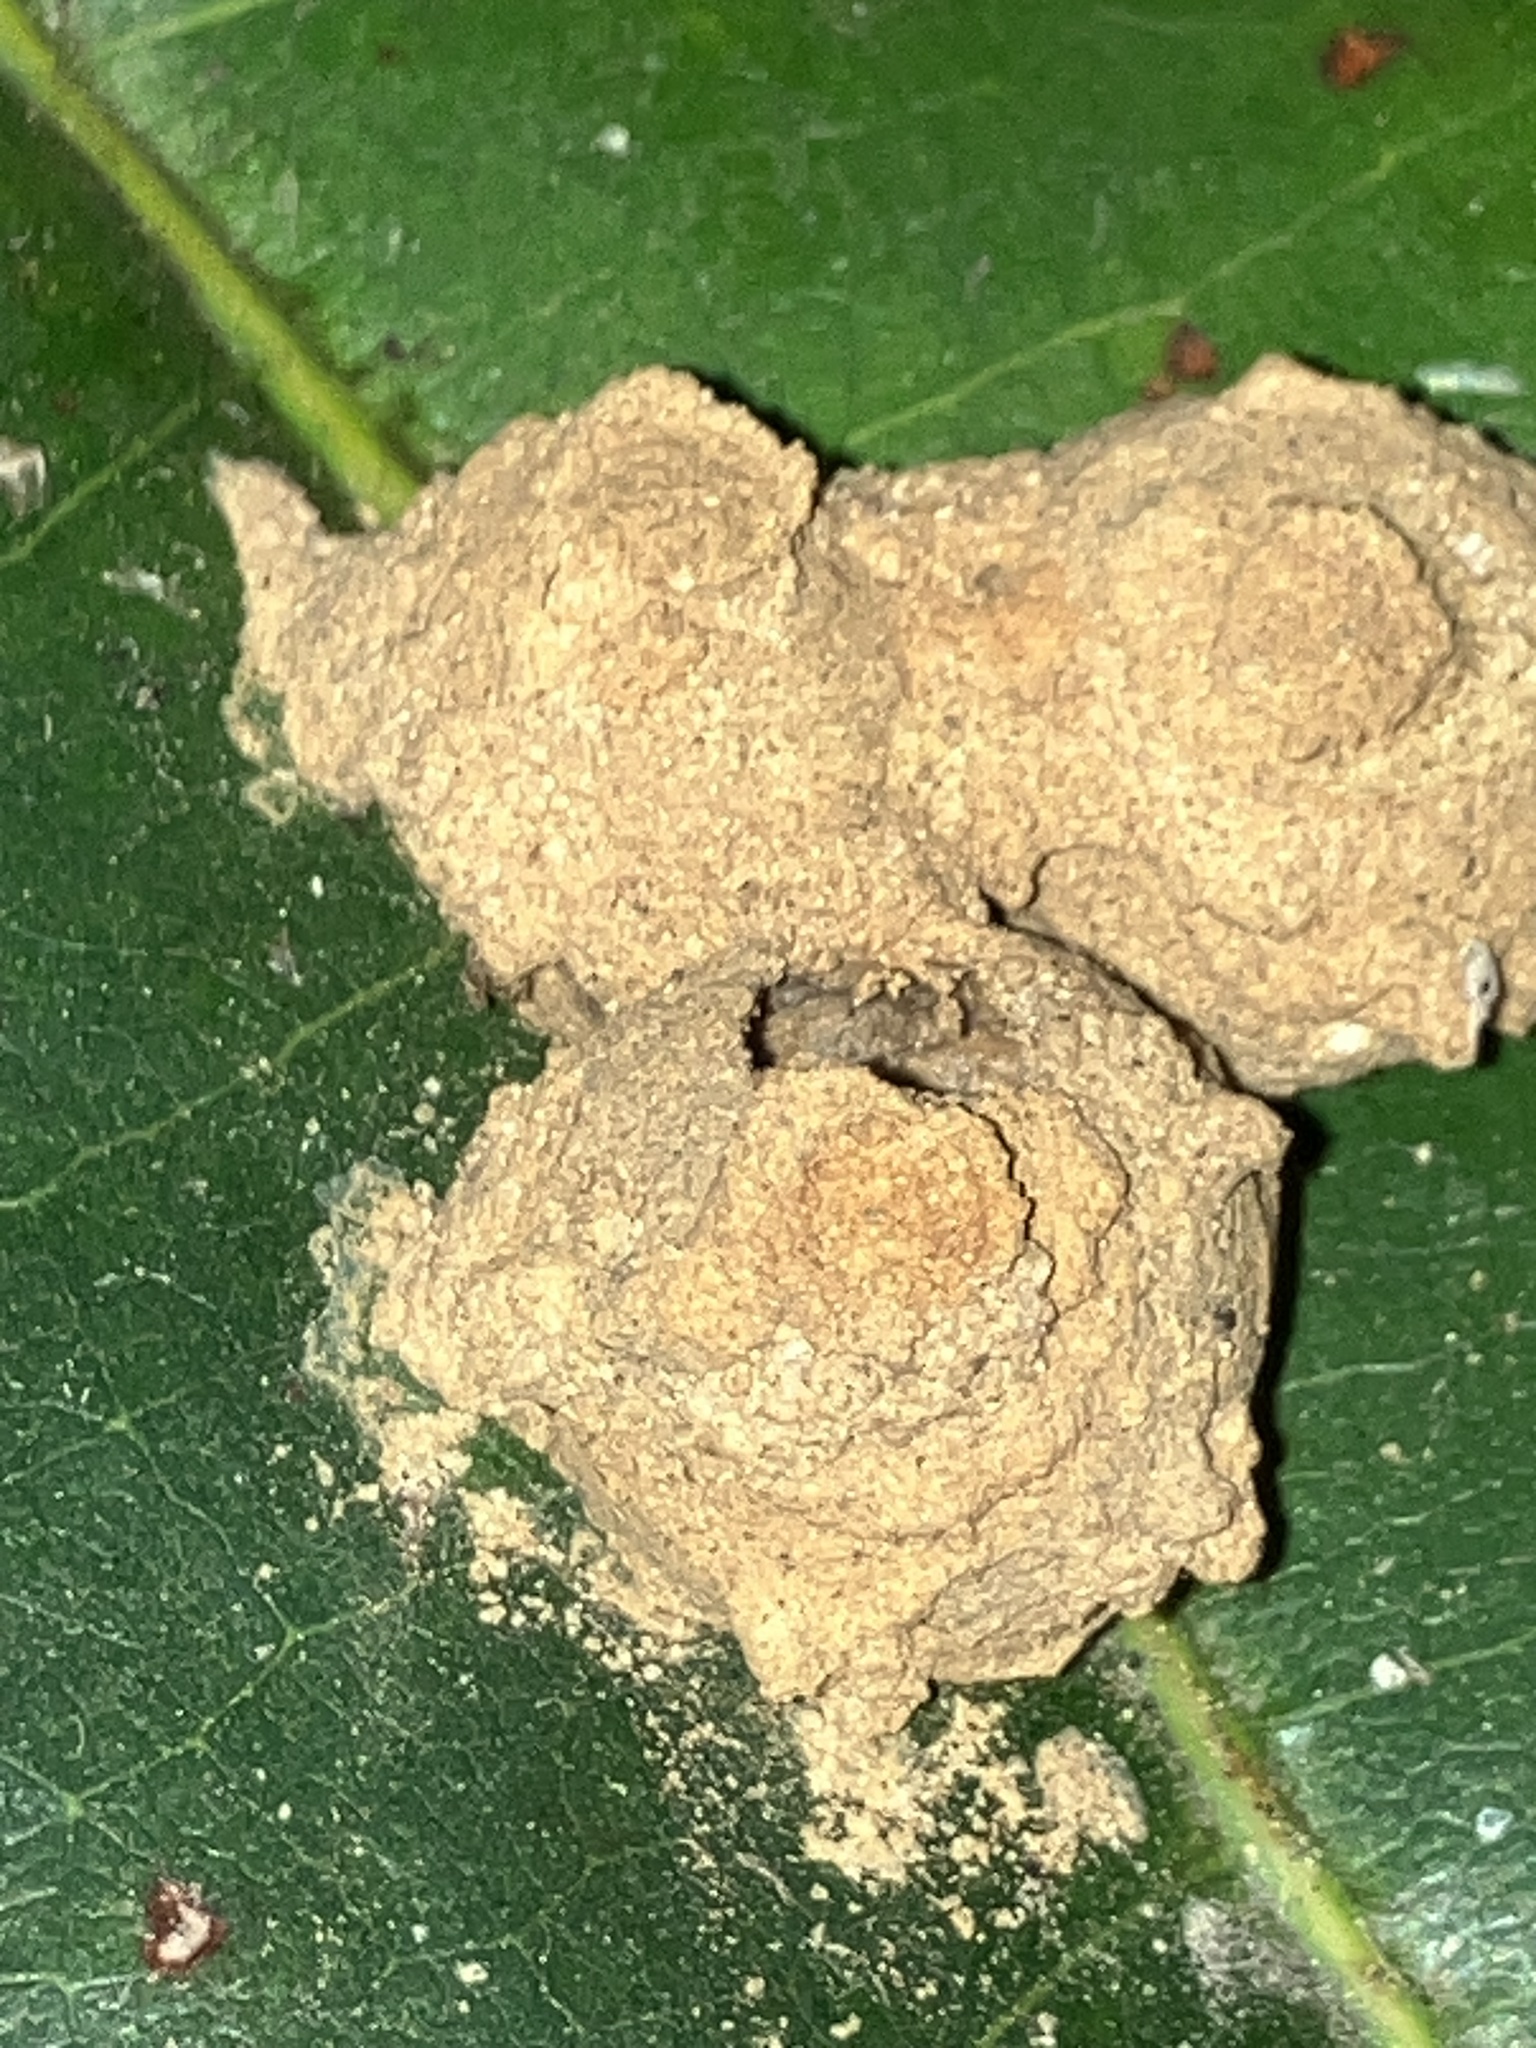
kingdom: Animalia
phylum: Arthropoda
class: Insecta
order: Hymenoptera
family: Eumenidae
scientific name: Eumenidae
